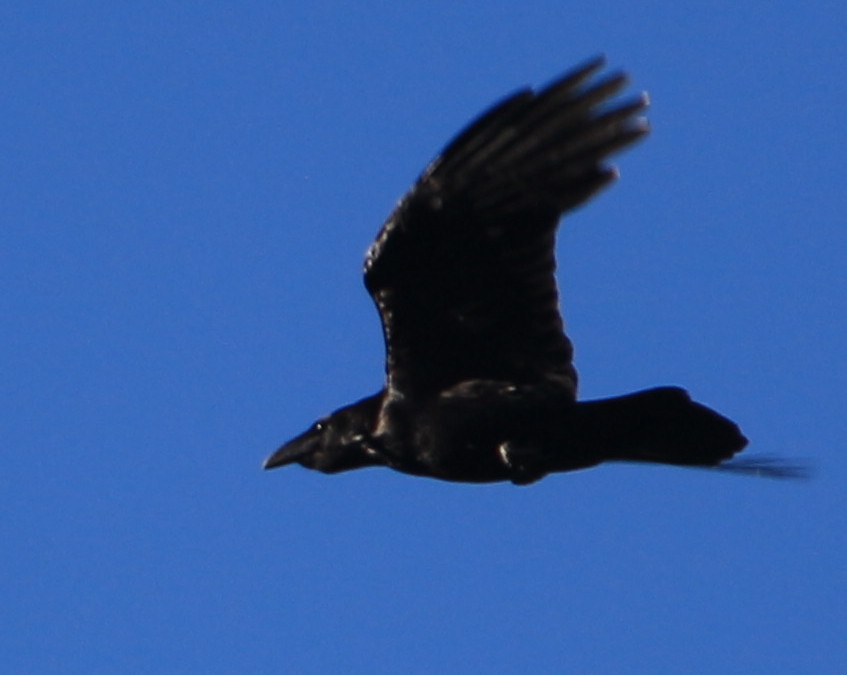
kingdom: Animalia
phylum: Chordata
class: Aves
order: Passeriformes
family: Corvidae
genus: Corvus
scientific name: Corvus corax
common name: Common raven
